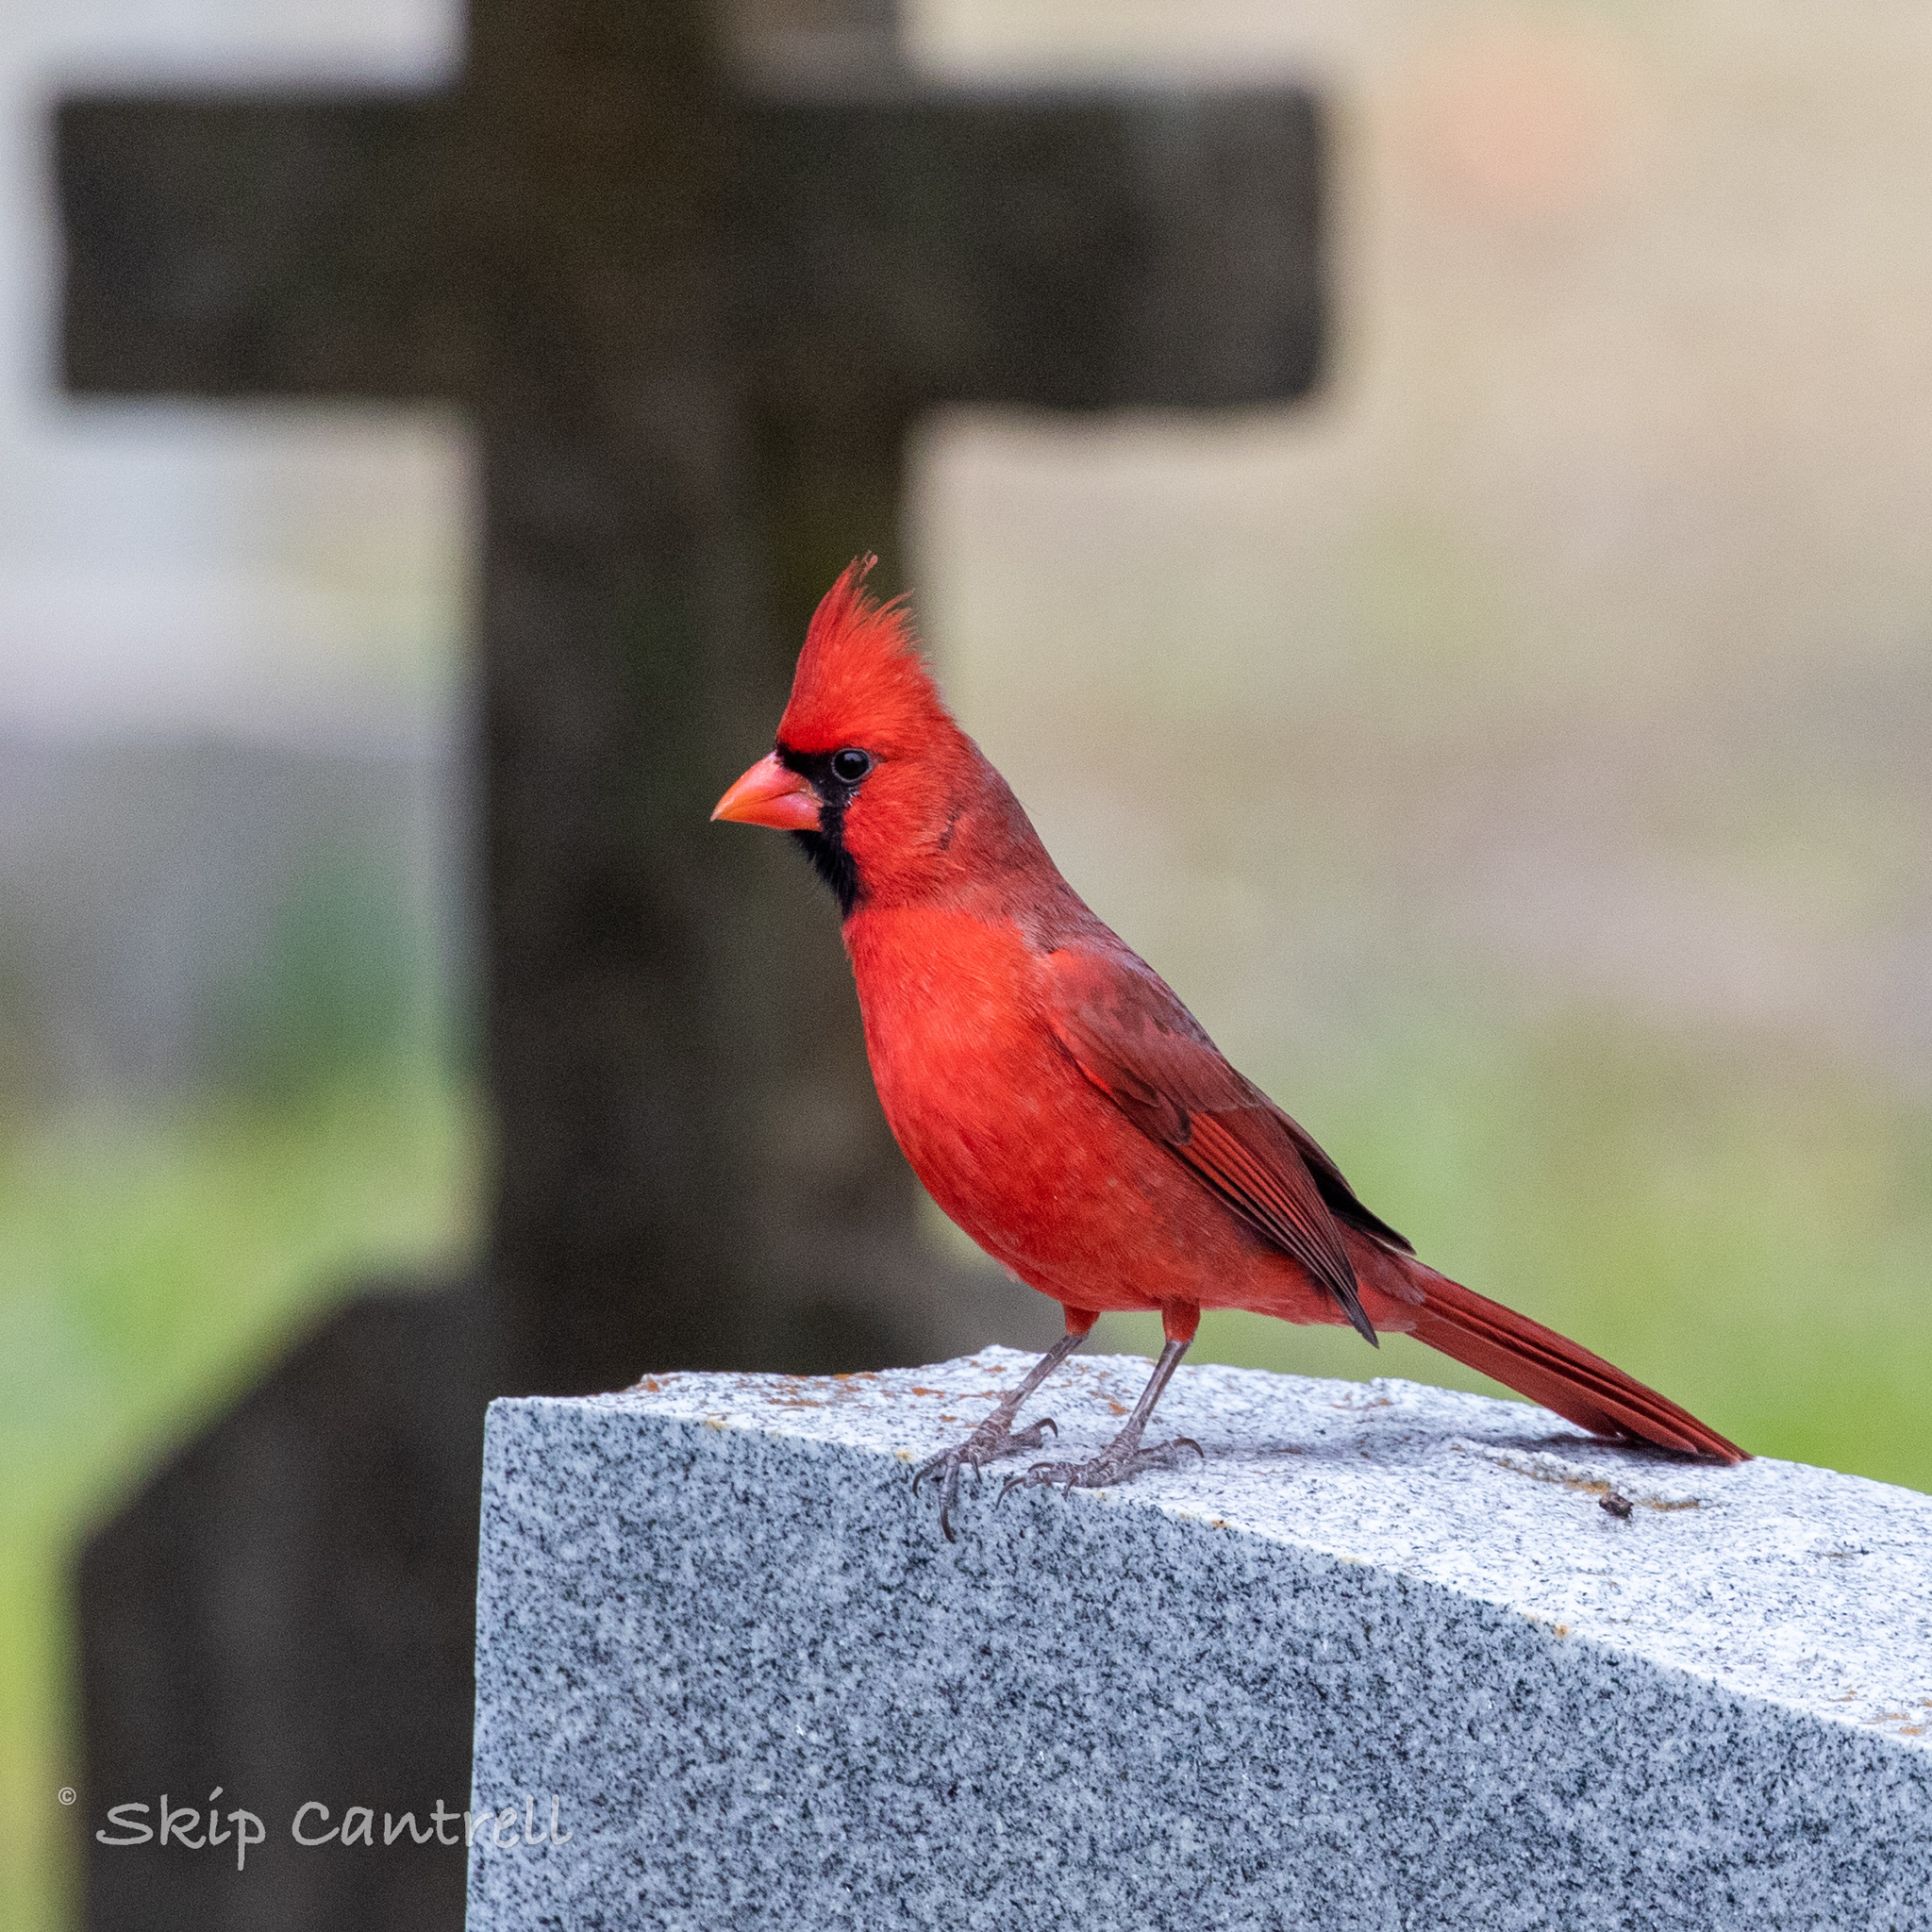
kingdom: Animalia
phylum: Chordata
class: Aves
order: Passeriformes
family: Cardinalidae
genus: Cardinalis
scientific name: Cardinalis cardinalis
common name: Northern cardinal
